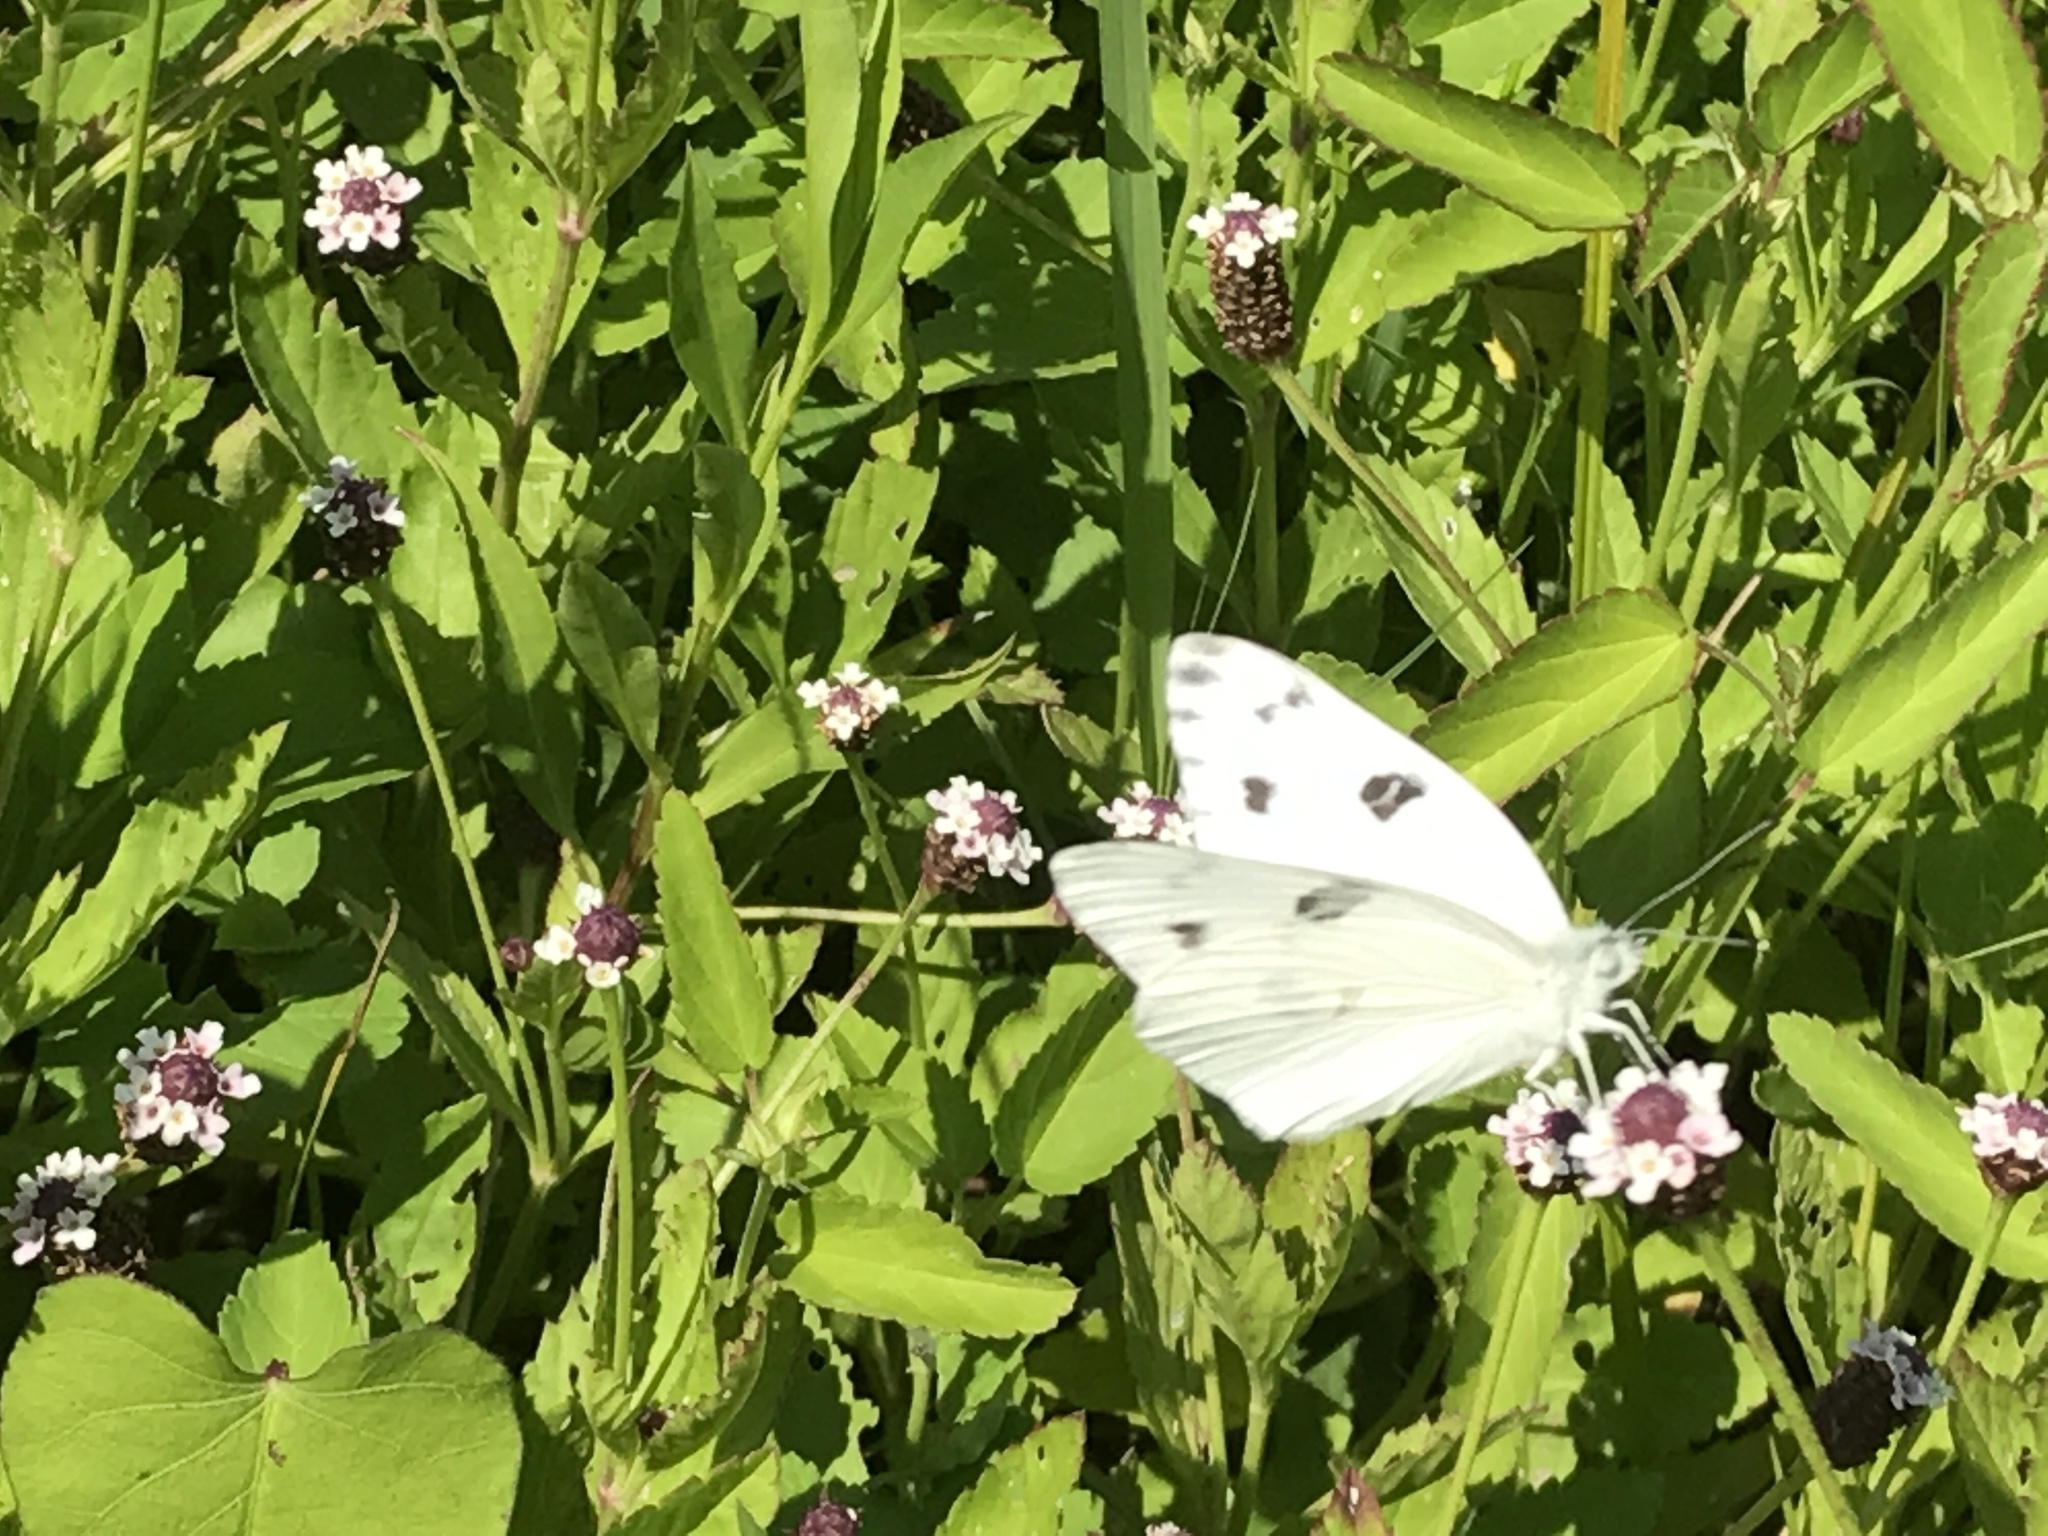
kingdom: Animalia
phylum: Arthropoda
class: Insecta
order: Lepidoptera
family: Pieridae
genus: Pontia
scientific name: Pontia protodice
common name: Checkered white
